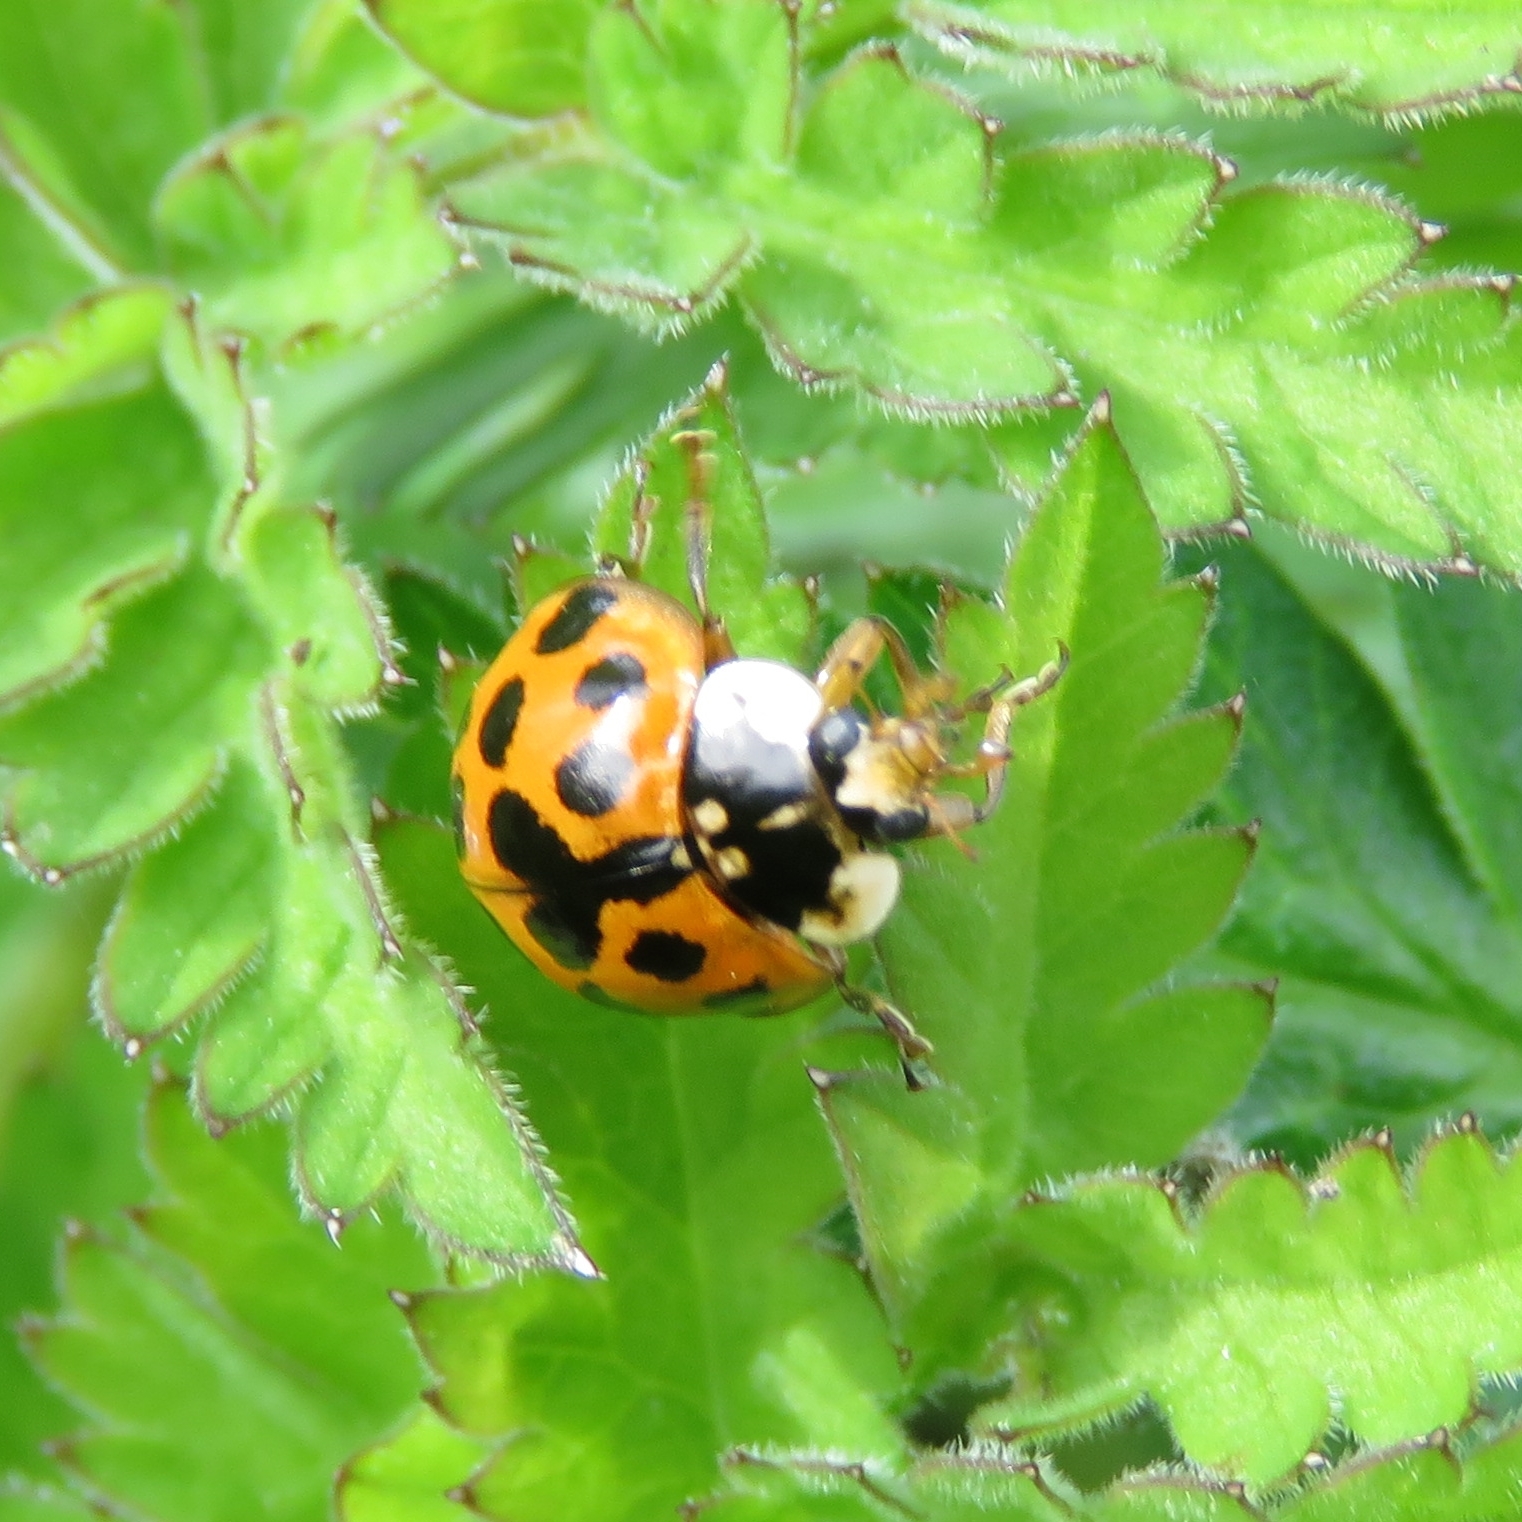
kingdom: Animalia
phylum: Arthropoda
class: Insecta
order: Coleoptera
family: Coccinellidae
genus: Harmonia
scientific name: Harmonia axyridis
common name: Harlequin ladybird
